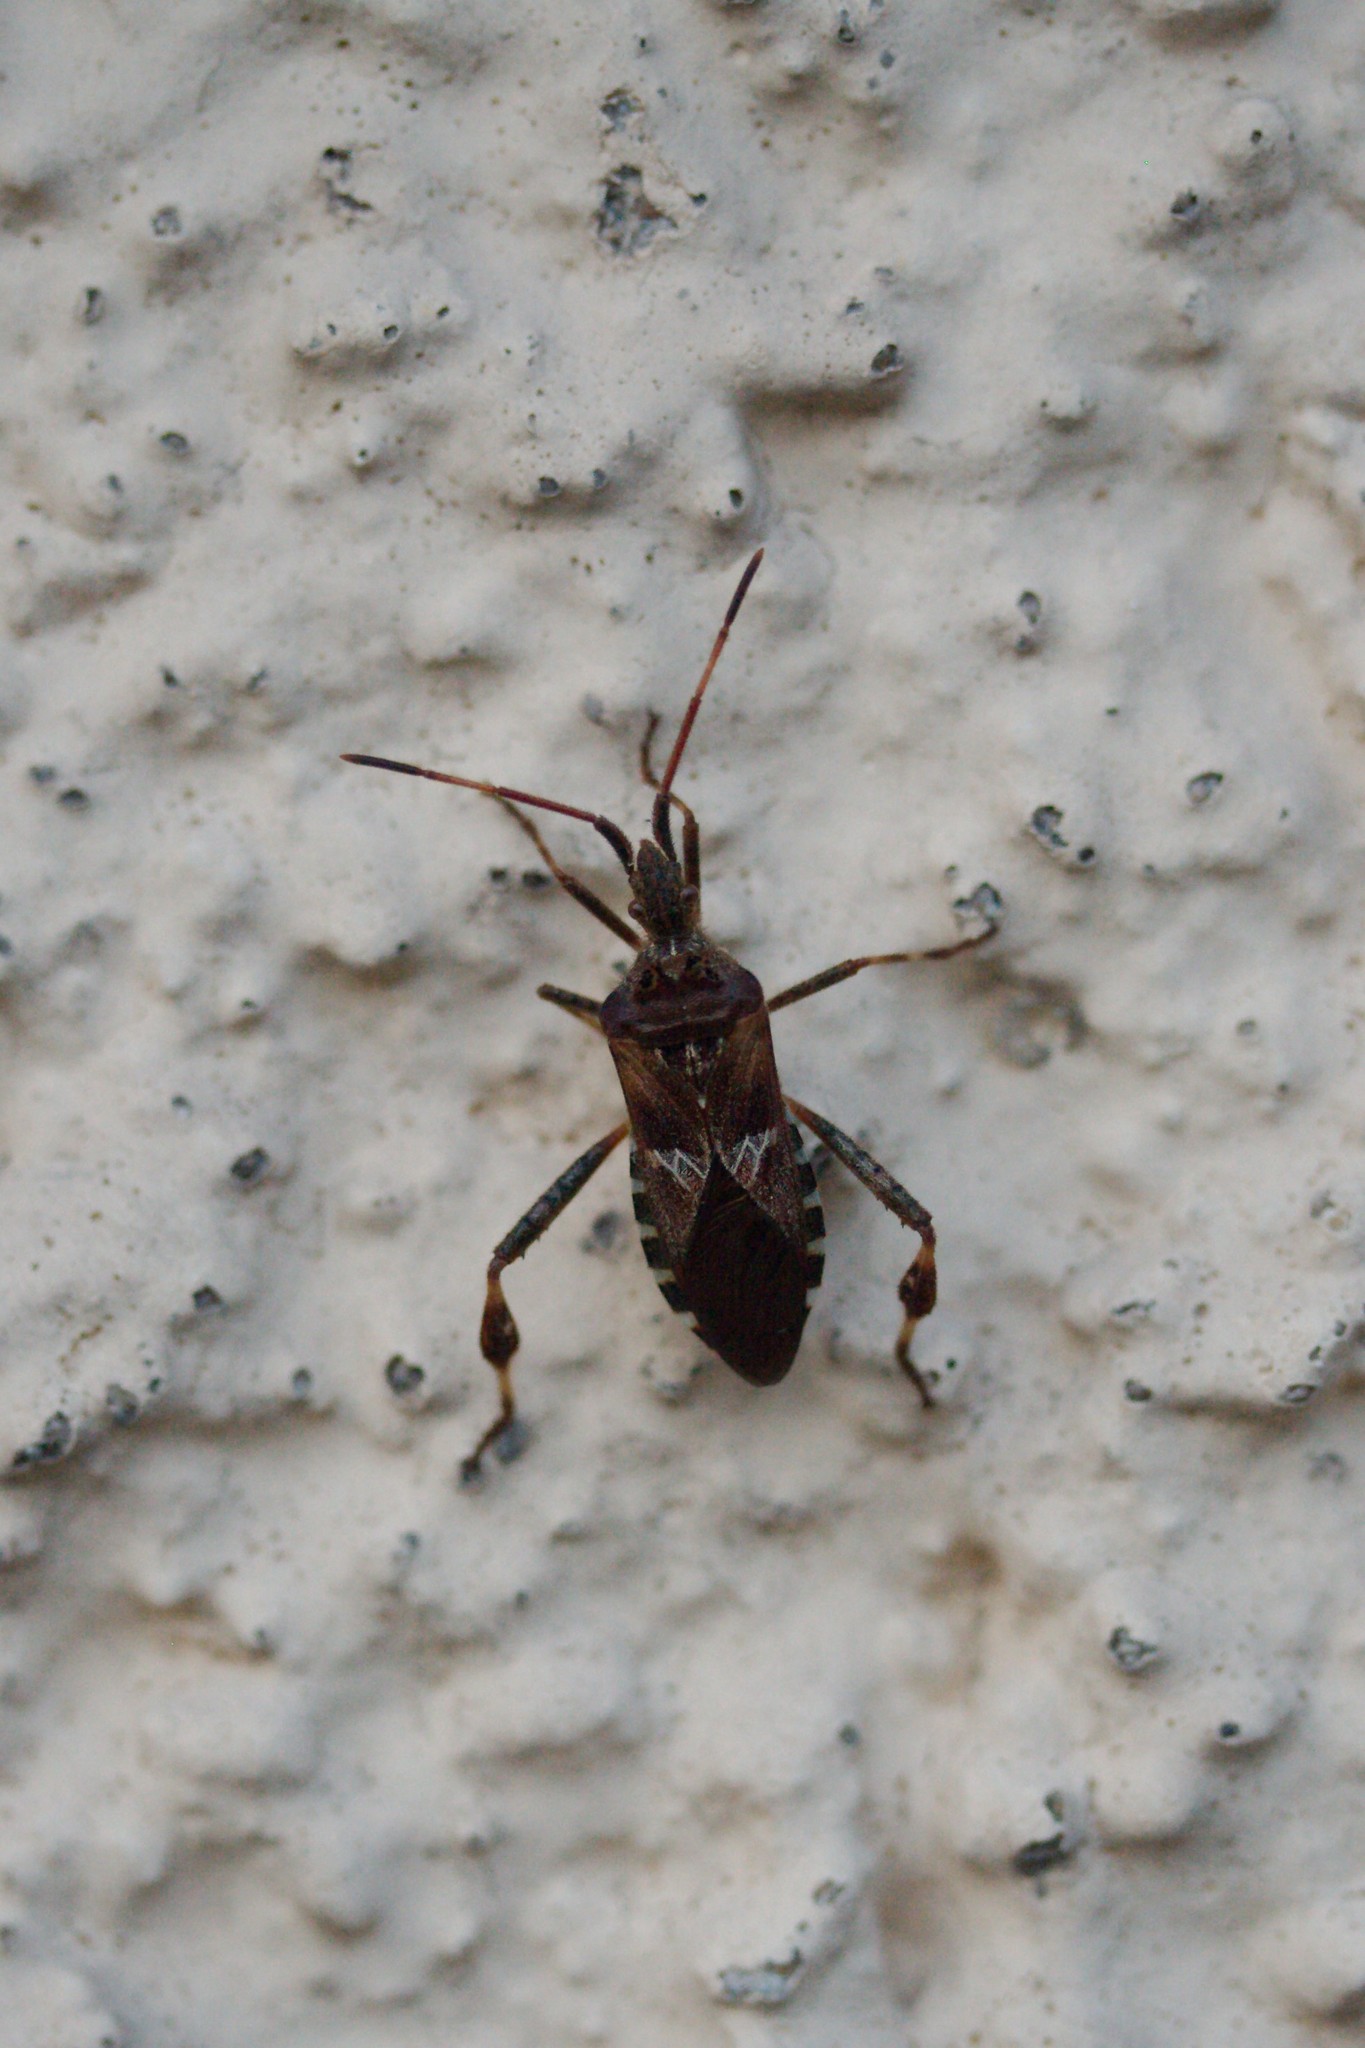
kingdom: Animalia
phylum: Arthropoda
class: Insecta
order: Hemiptera
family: Coreidae
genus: Leptoglossus
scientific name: Leptoglossus occidentalis
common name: Western conifer-seed bug
